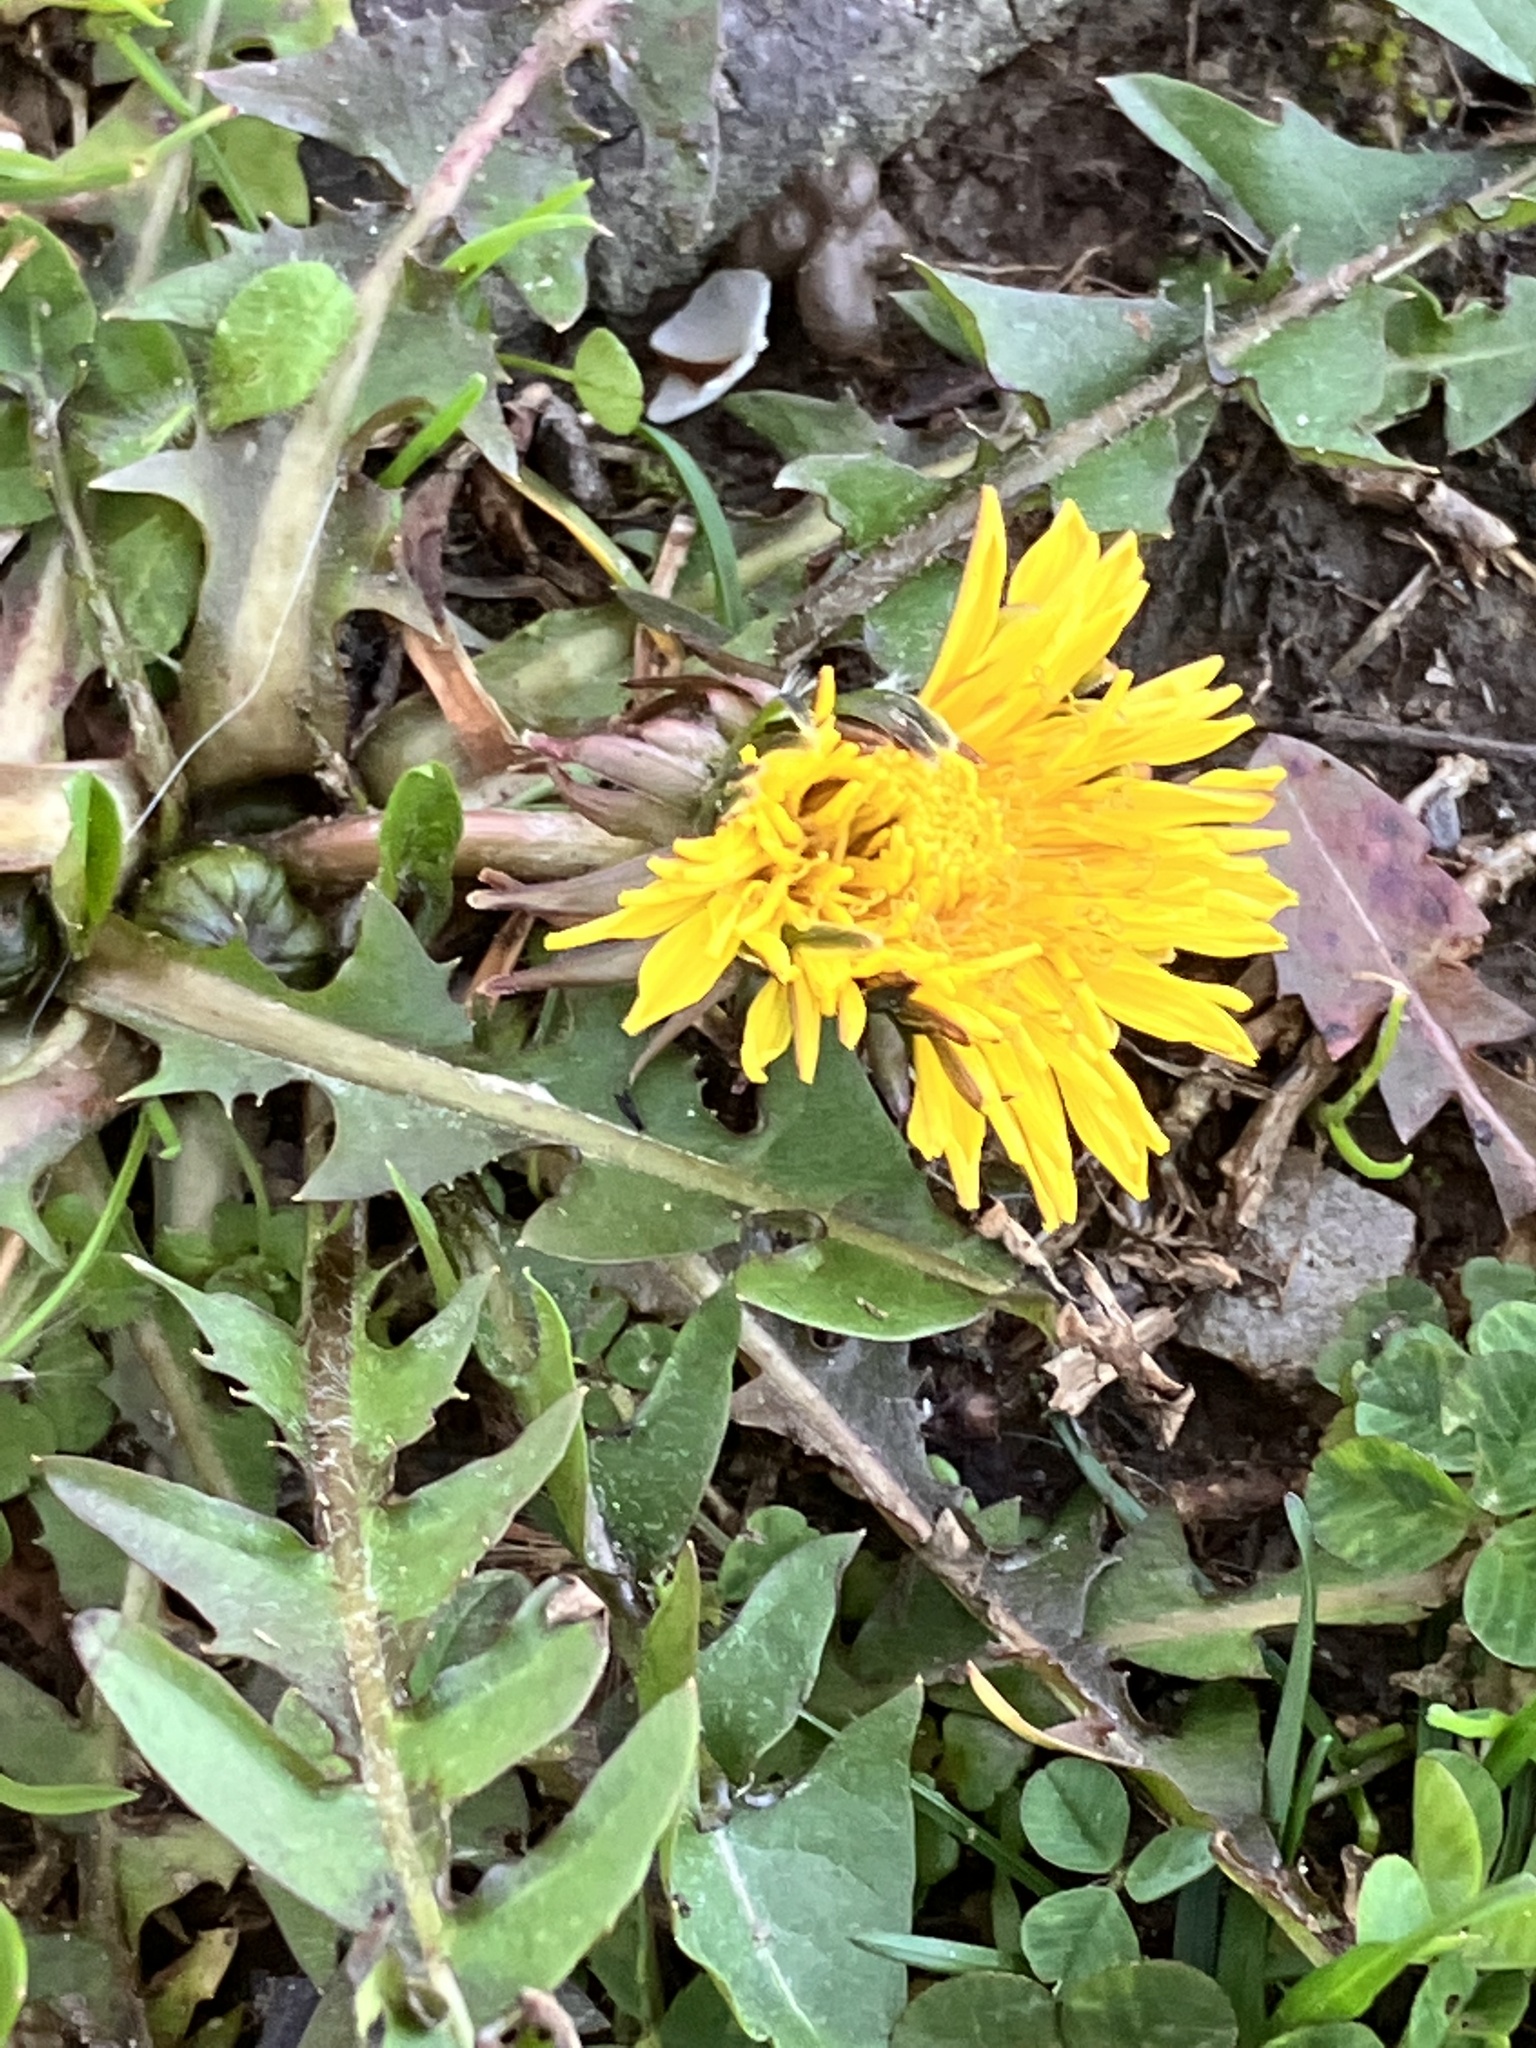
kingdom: Plantae
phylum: Tracheophyta
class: Magnoliopsida
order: Asterales
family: Asteraceae
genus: Taraxacum
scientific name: Taraxacum
